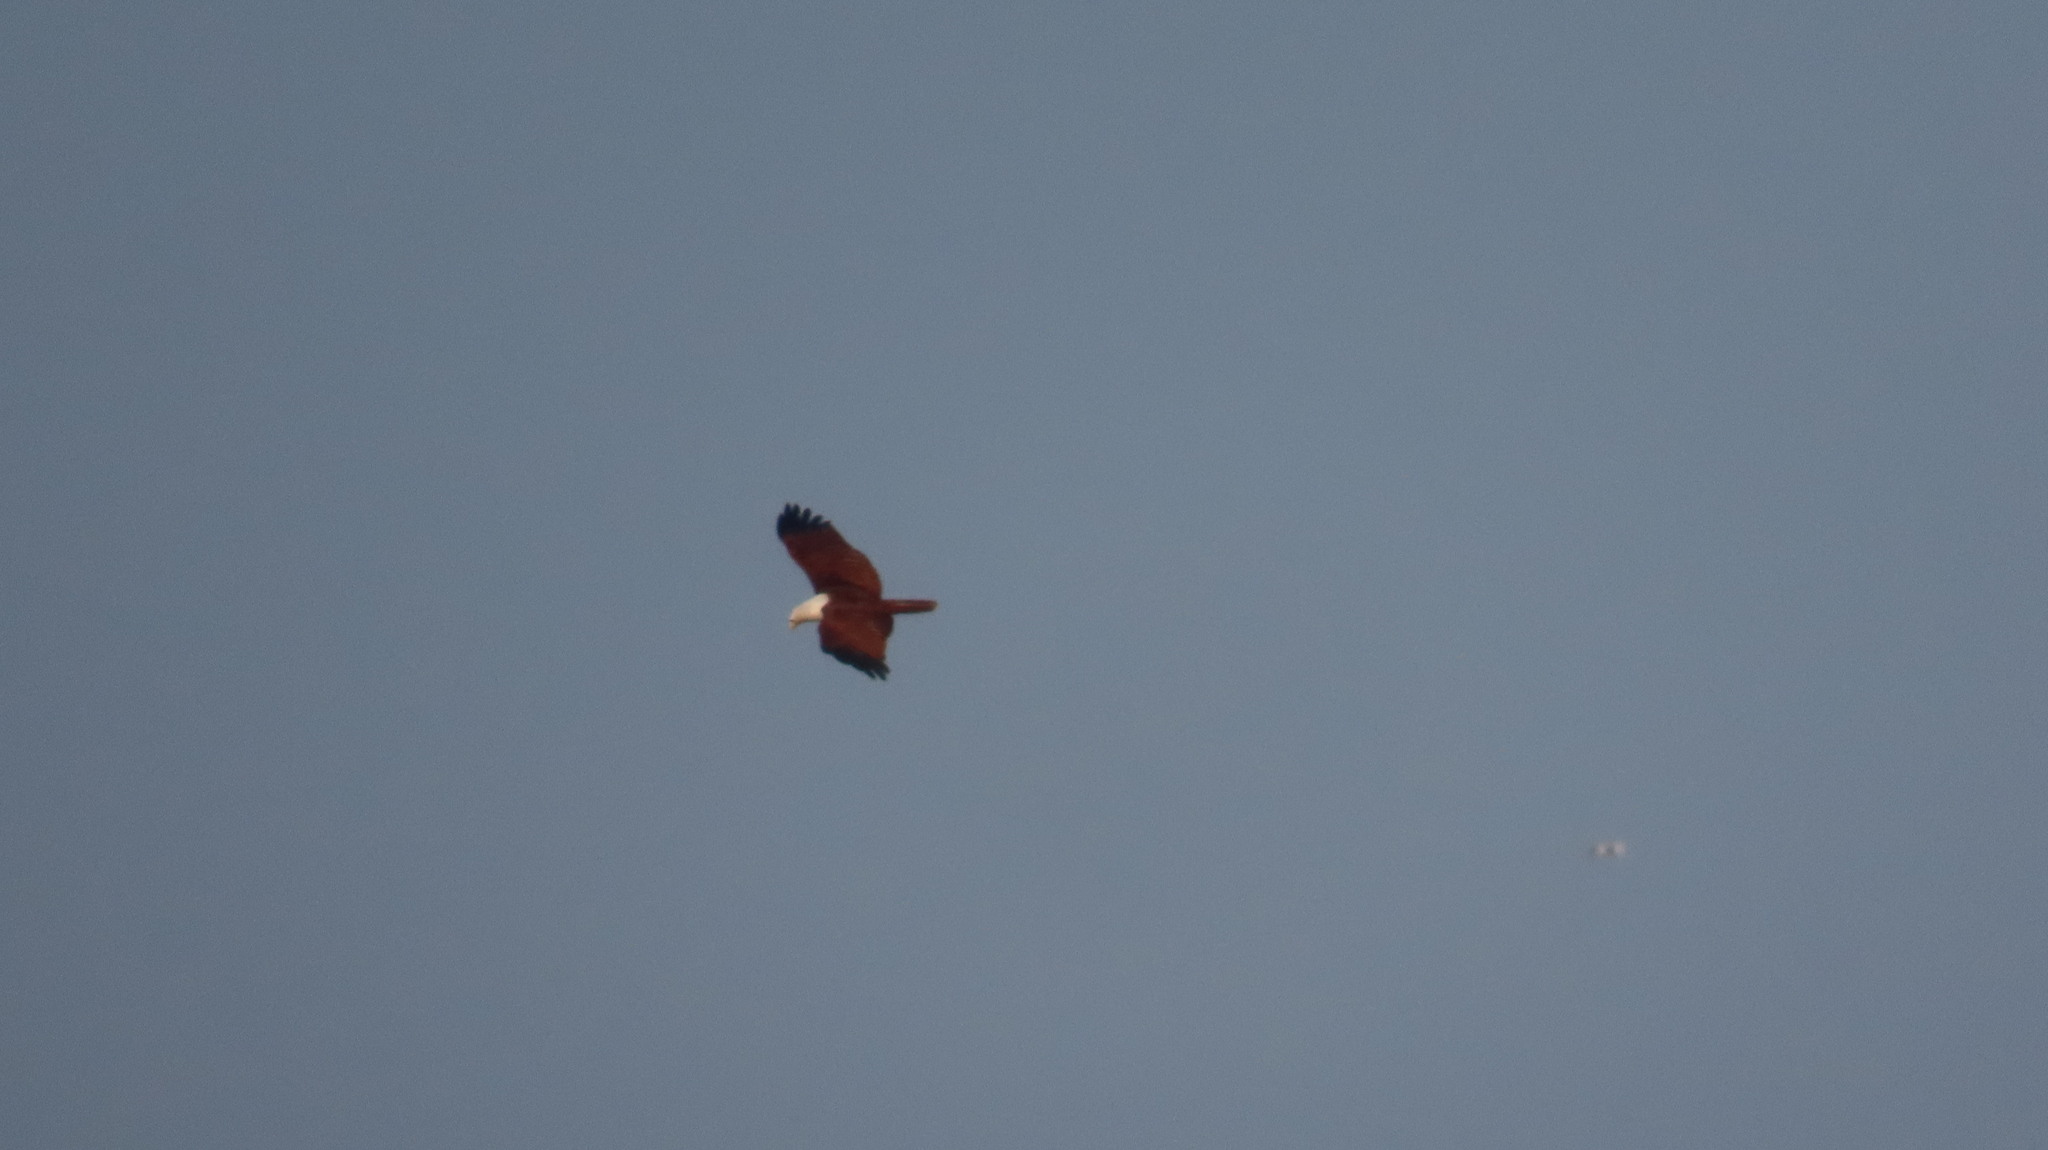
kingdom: Animalia
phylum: Chordata
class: Aves
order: Accipitriformes
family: Accipitridae
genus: Haliastur
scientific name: Haliastur indus
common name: Brahminy kite
